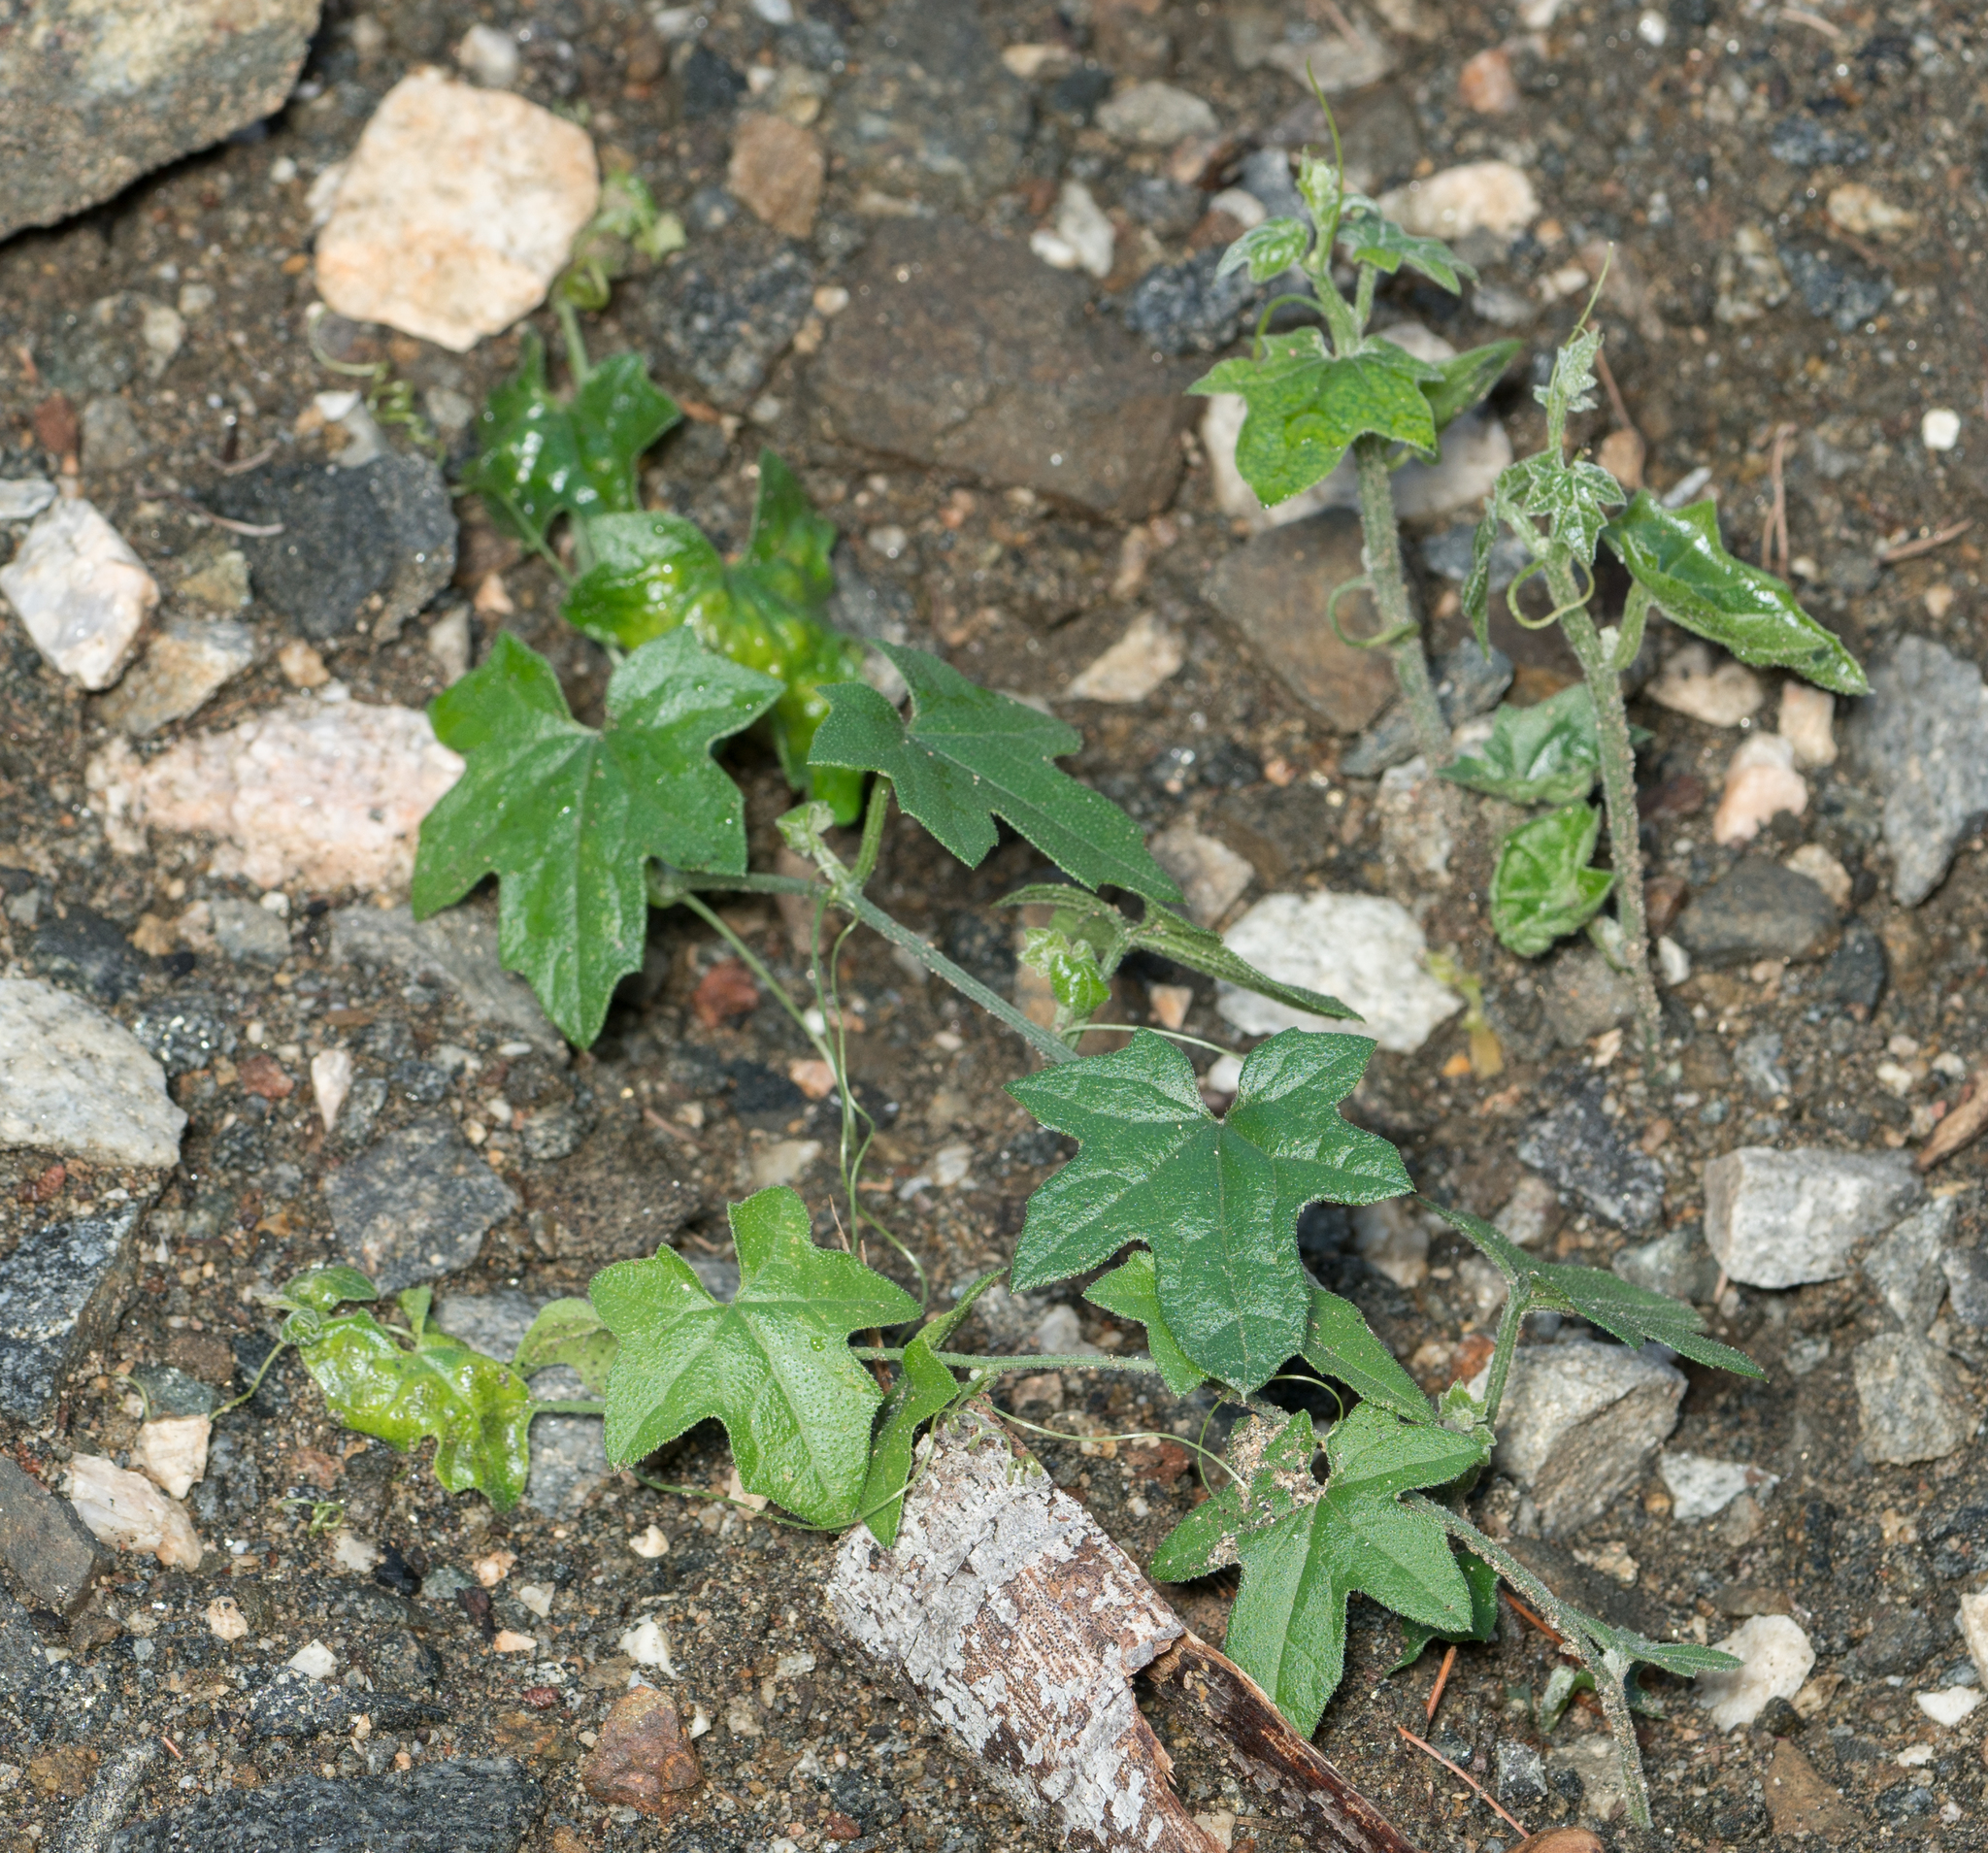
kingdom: Plantae
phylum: Tracheophyta
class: Magnoliopsida
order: Cucurbitales
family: Cucurbitaceae
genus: Marah
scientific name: Marah macrocarpa
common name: Cucamonga manroot
